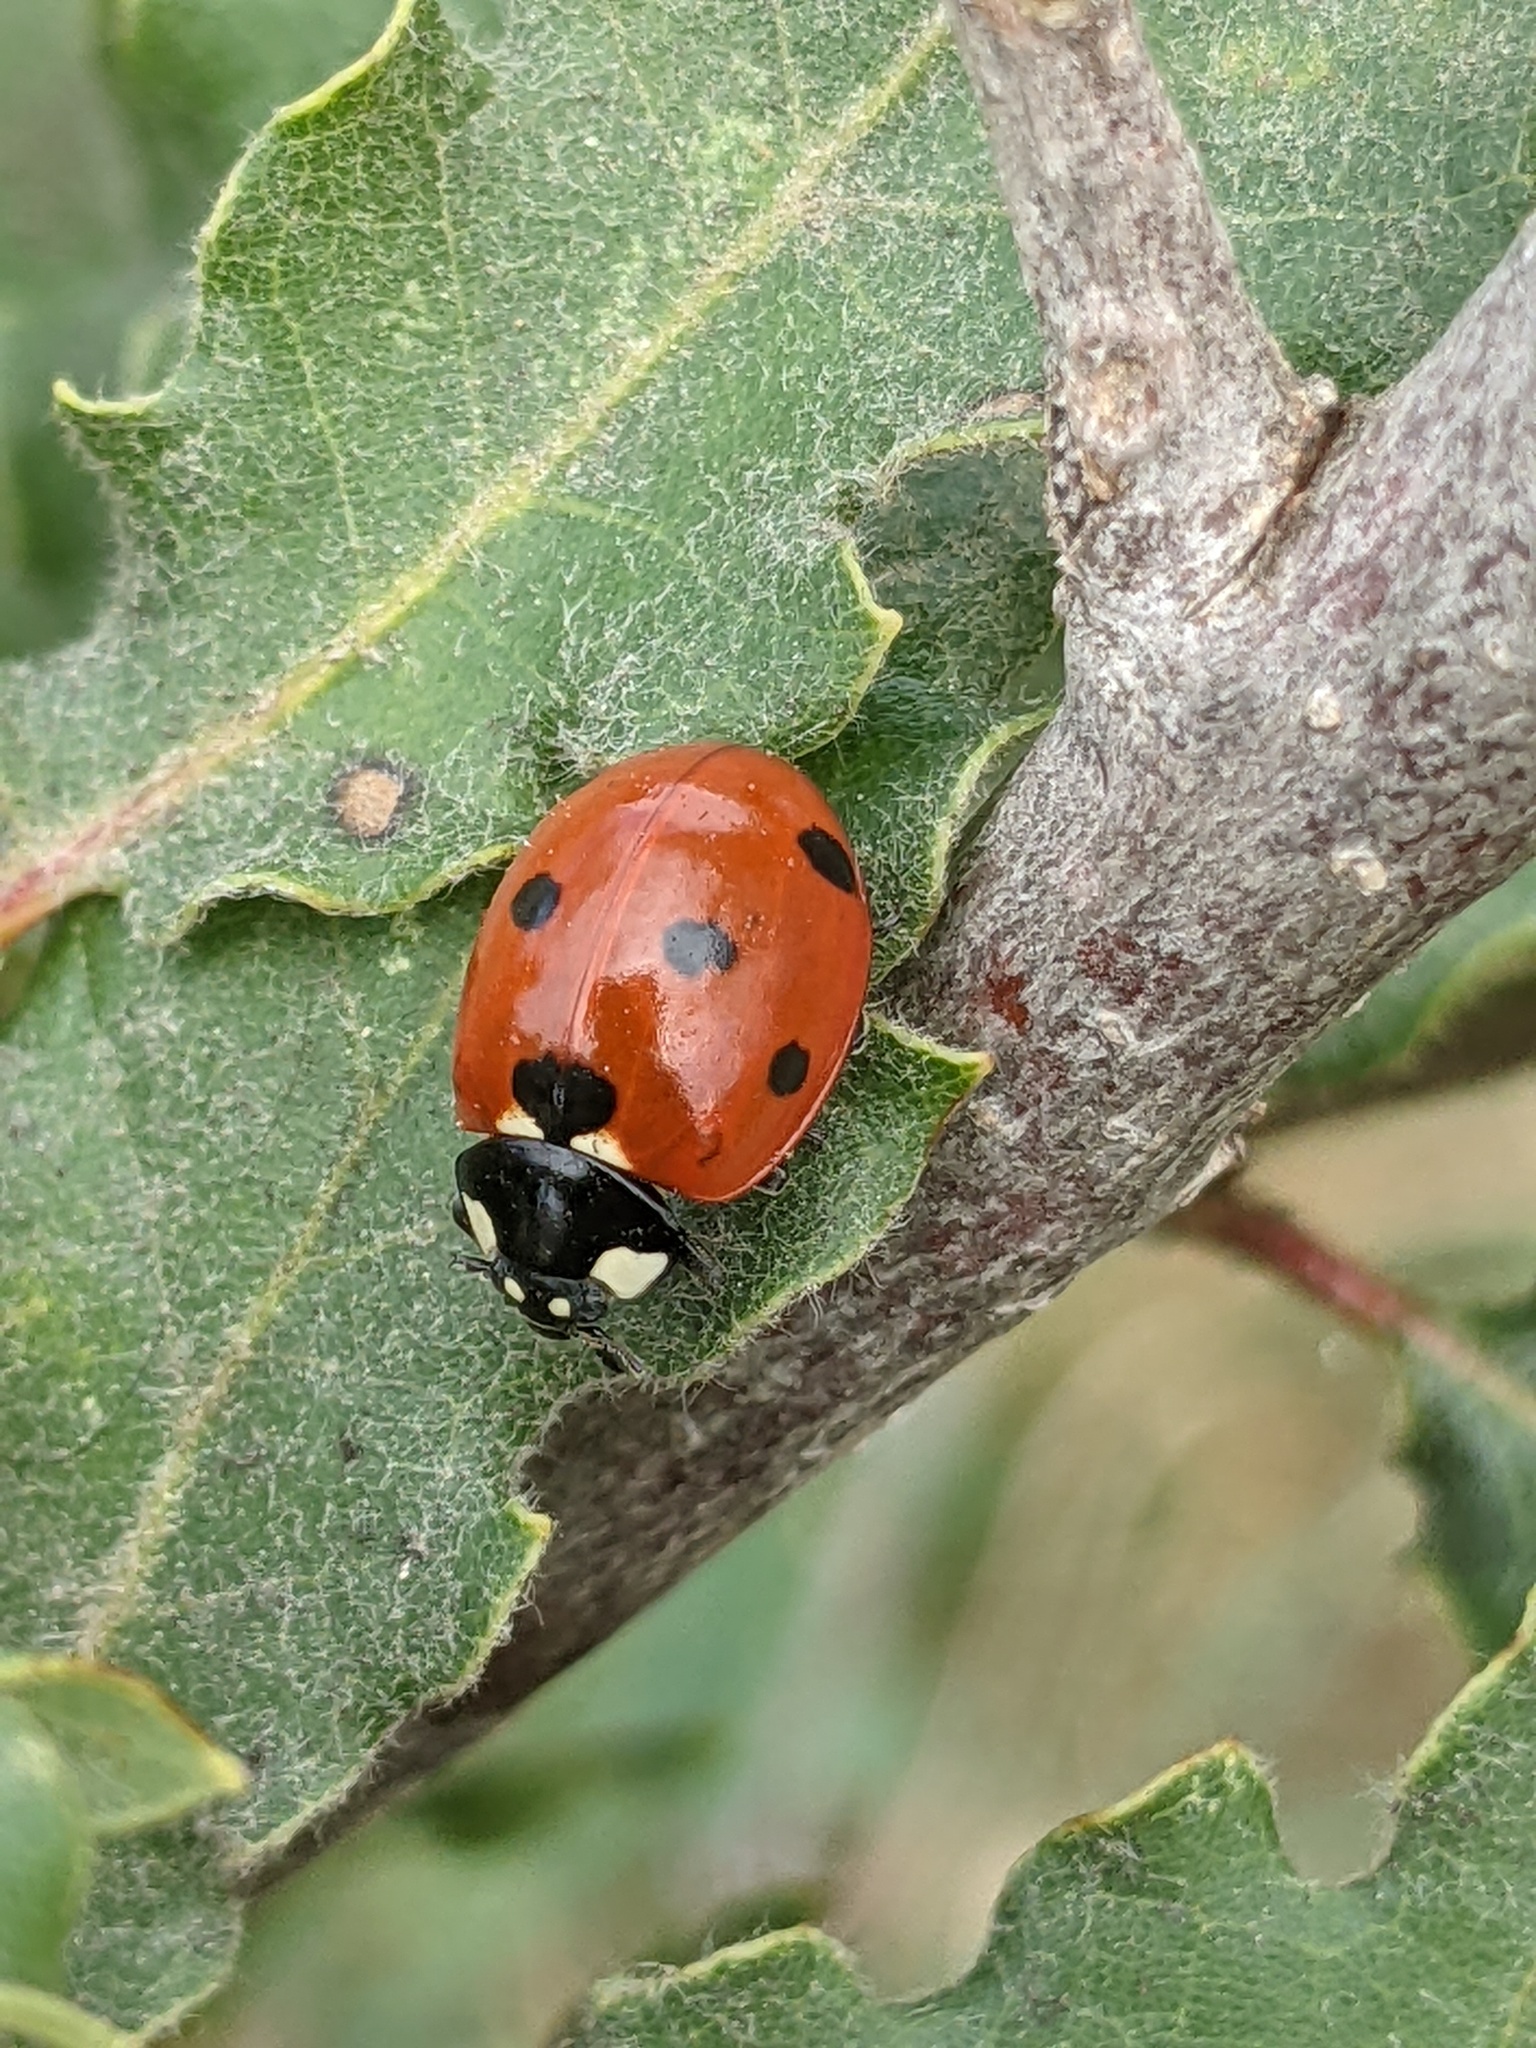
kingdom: Animalia
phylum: Arthropoda
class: Insecta
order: Coleoptera
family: Coccinellidae
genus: Coccinella
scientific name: Coccinella septempunctata
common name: Sevenspotted lady beetle
